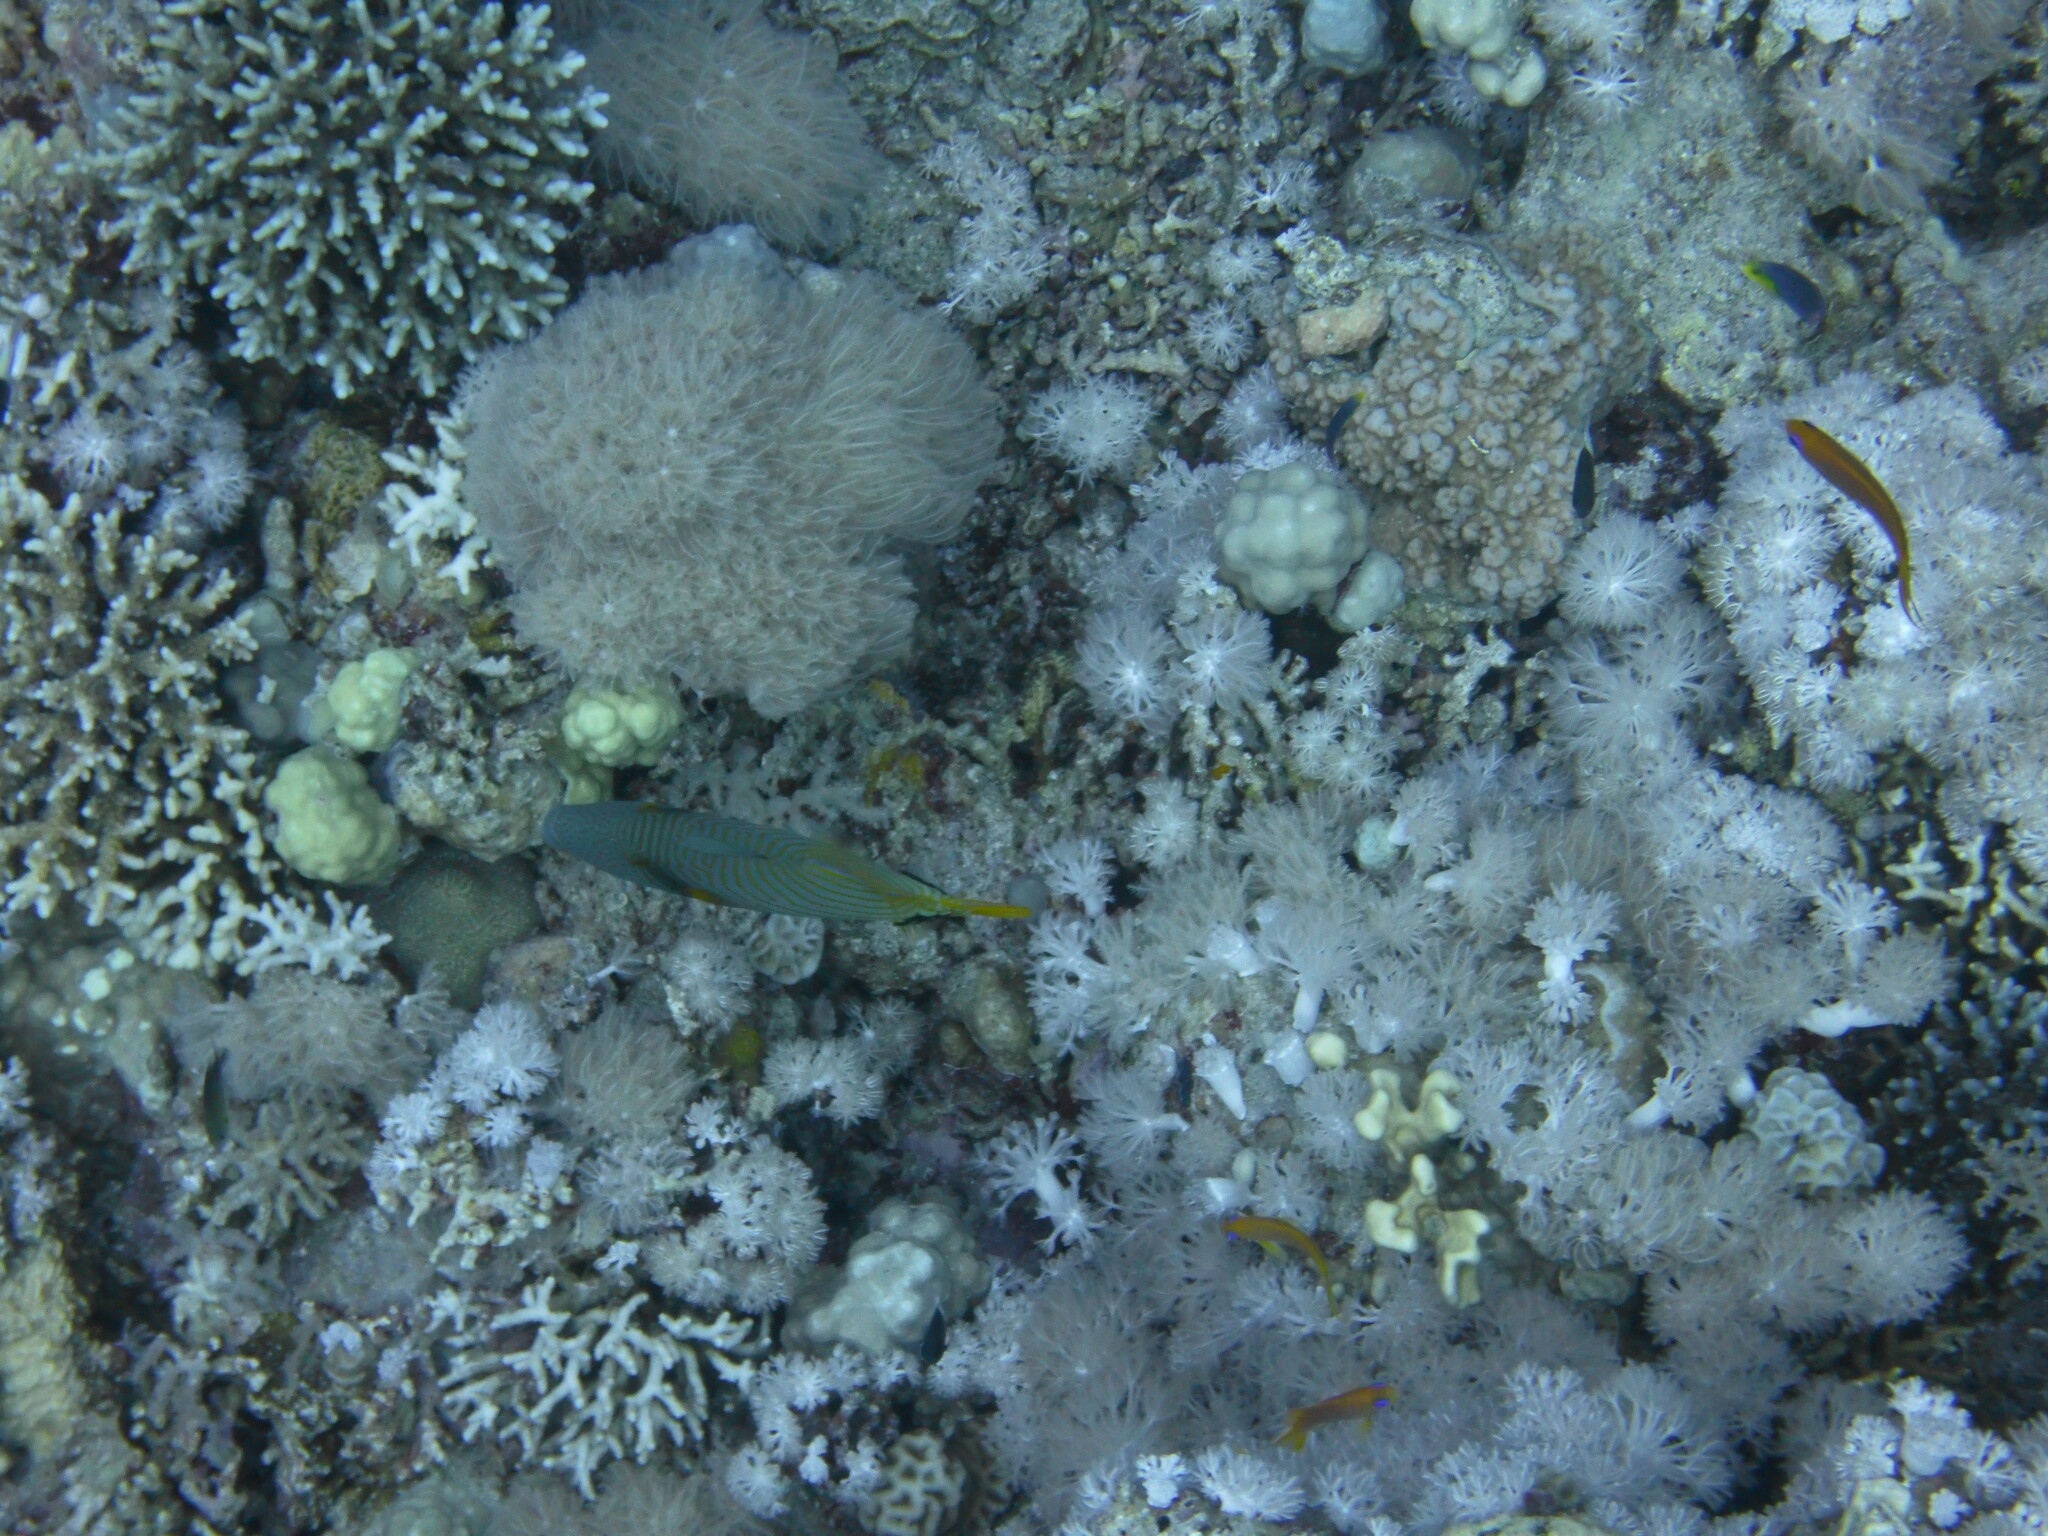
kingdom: Animalia
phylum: Chordata
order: Tetraodontiformes
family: Balistidae
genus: Balistapus
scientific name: Balistapus undulatus
